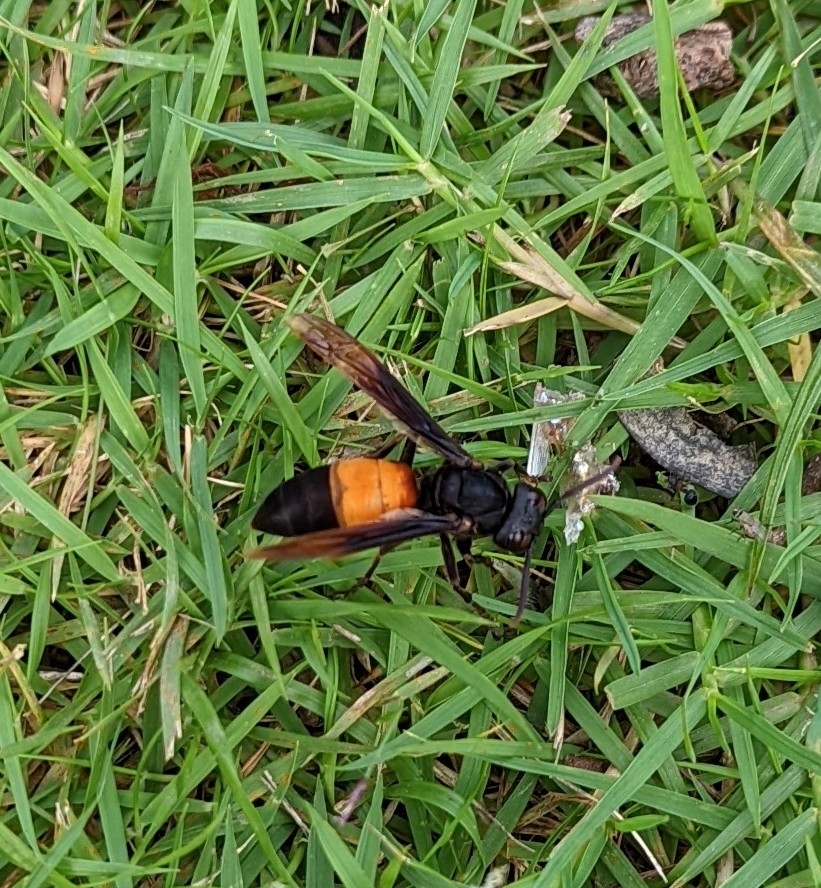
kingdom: Animalia
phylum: Arthropoda
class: Insecta
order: Hymenoptera
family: Vespidae
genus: Vespa
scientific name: Vespa affinis
